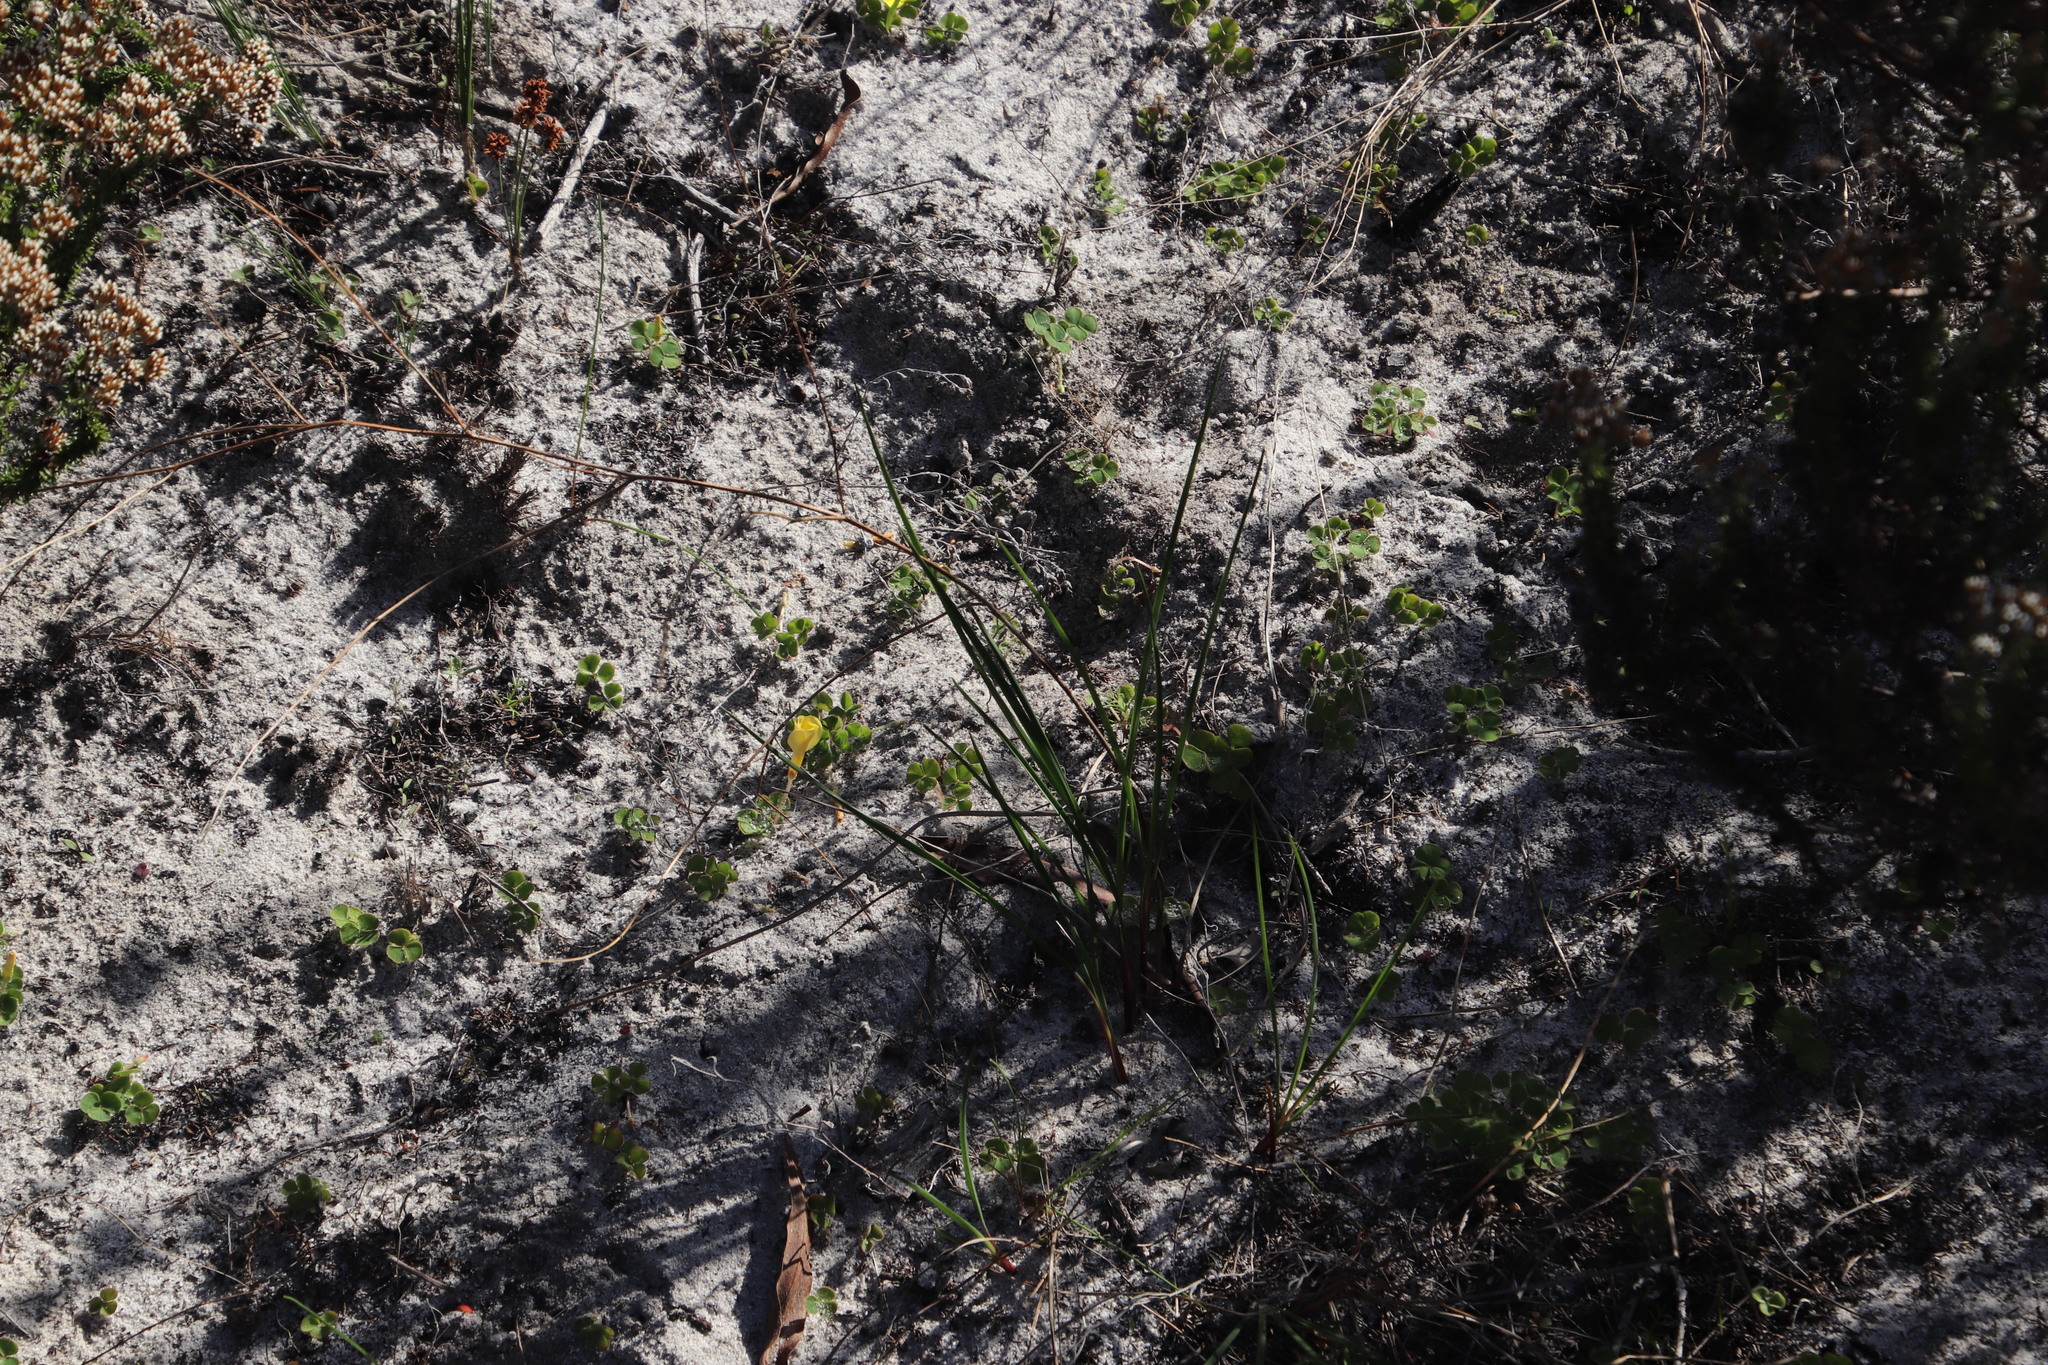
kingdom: Plantae
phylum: Tracheophyta
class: Magnoliopsida
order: Oxalidales
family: Oxalidaceae
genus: Oxalis
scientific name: Oxalis luteola
